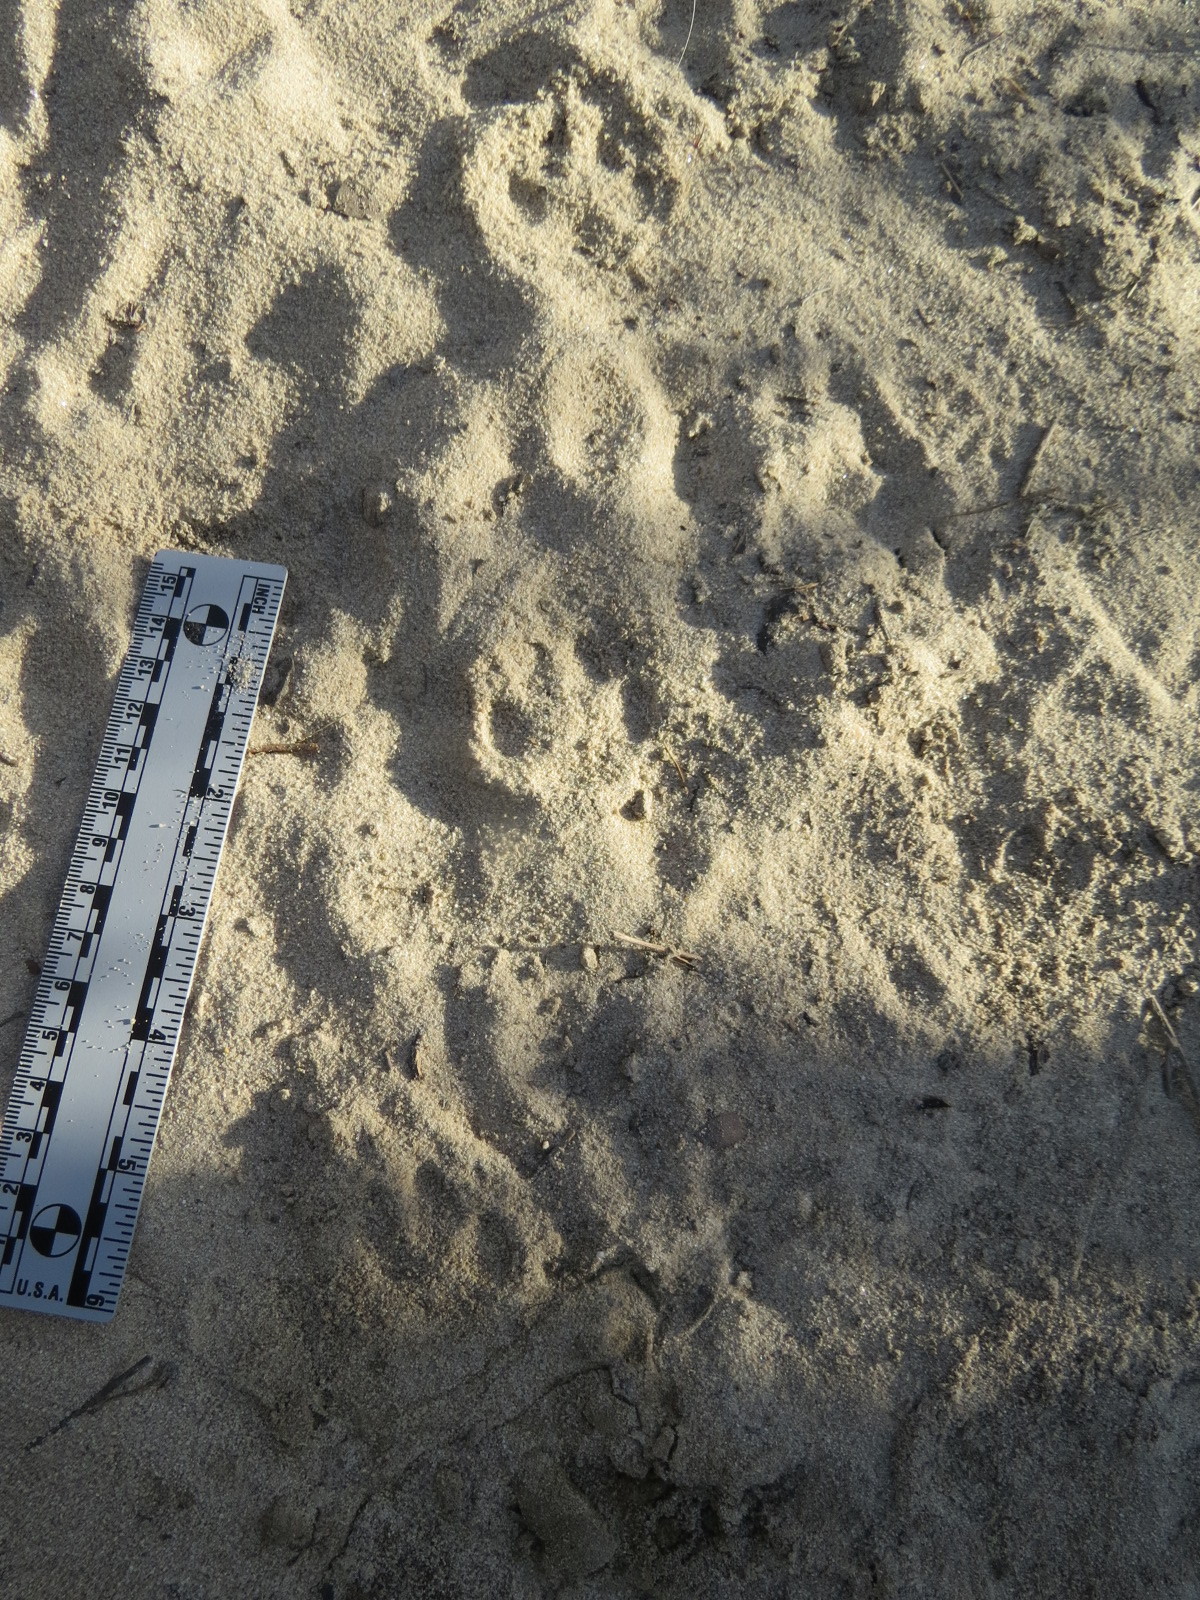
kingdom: Animalia
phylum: Chordata
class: Mammalia
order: Carnivora
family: Canidae
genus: Urocyon
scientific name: Urocyon cinereoargenteus
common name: Gray fox
